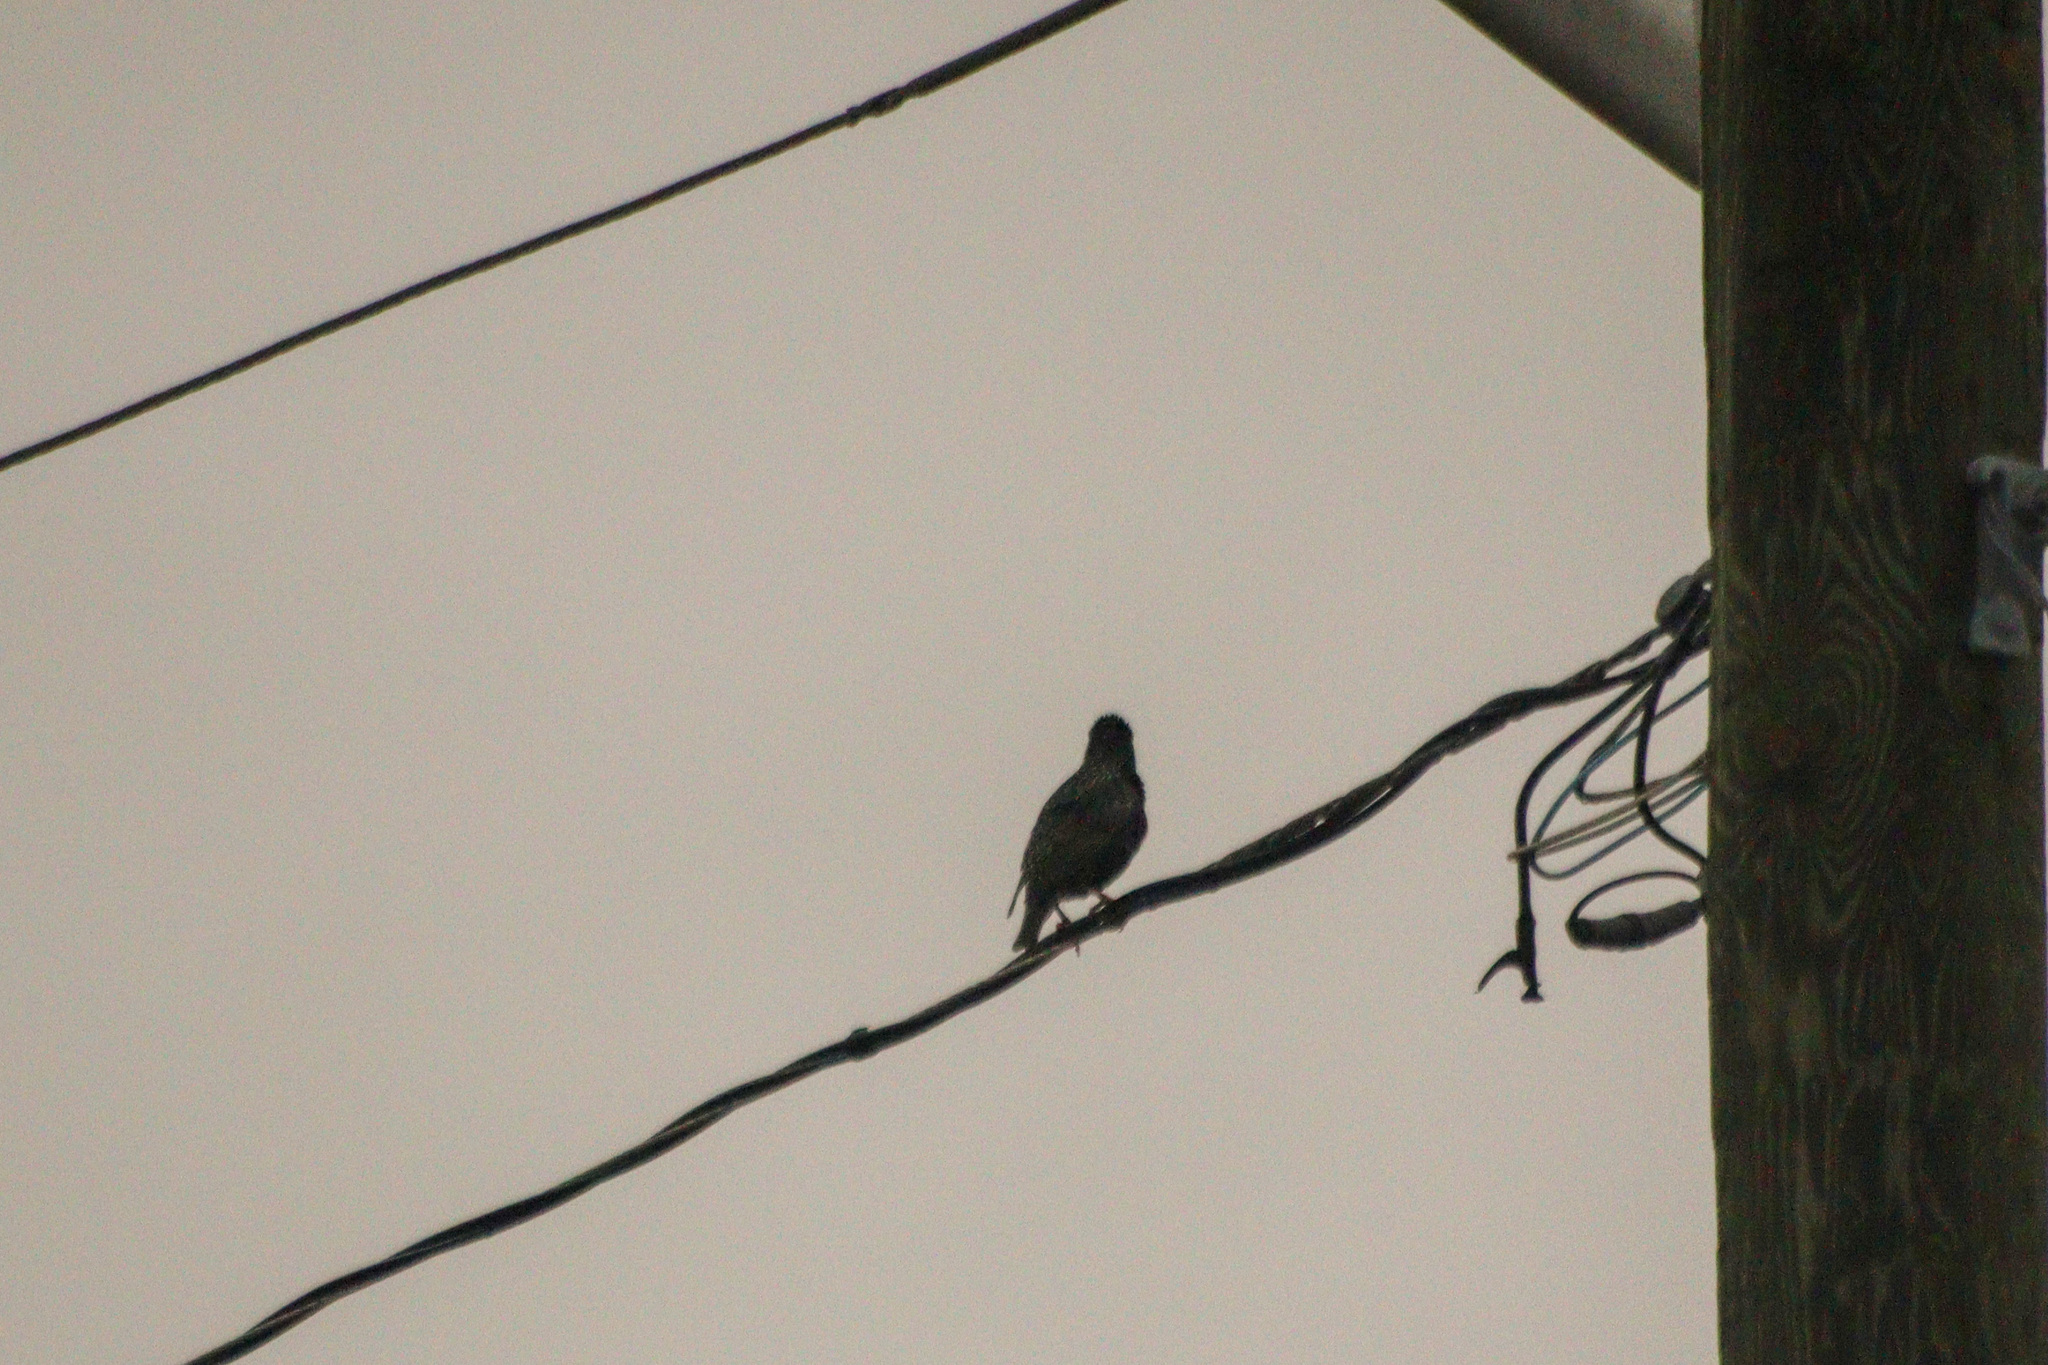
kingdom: Animalia
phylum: Chordata
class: Aves
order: Passeriformes
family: Sturnidae
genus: Sturnus
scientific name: Sturnus vulgaris
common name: Common starling
